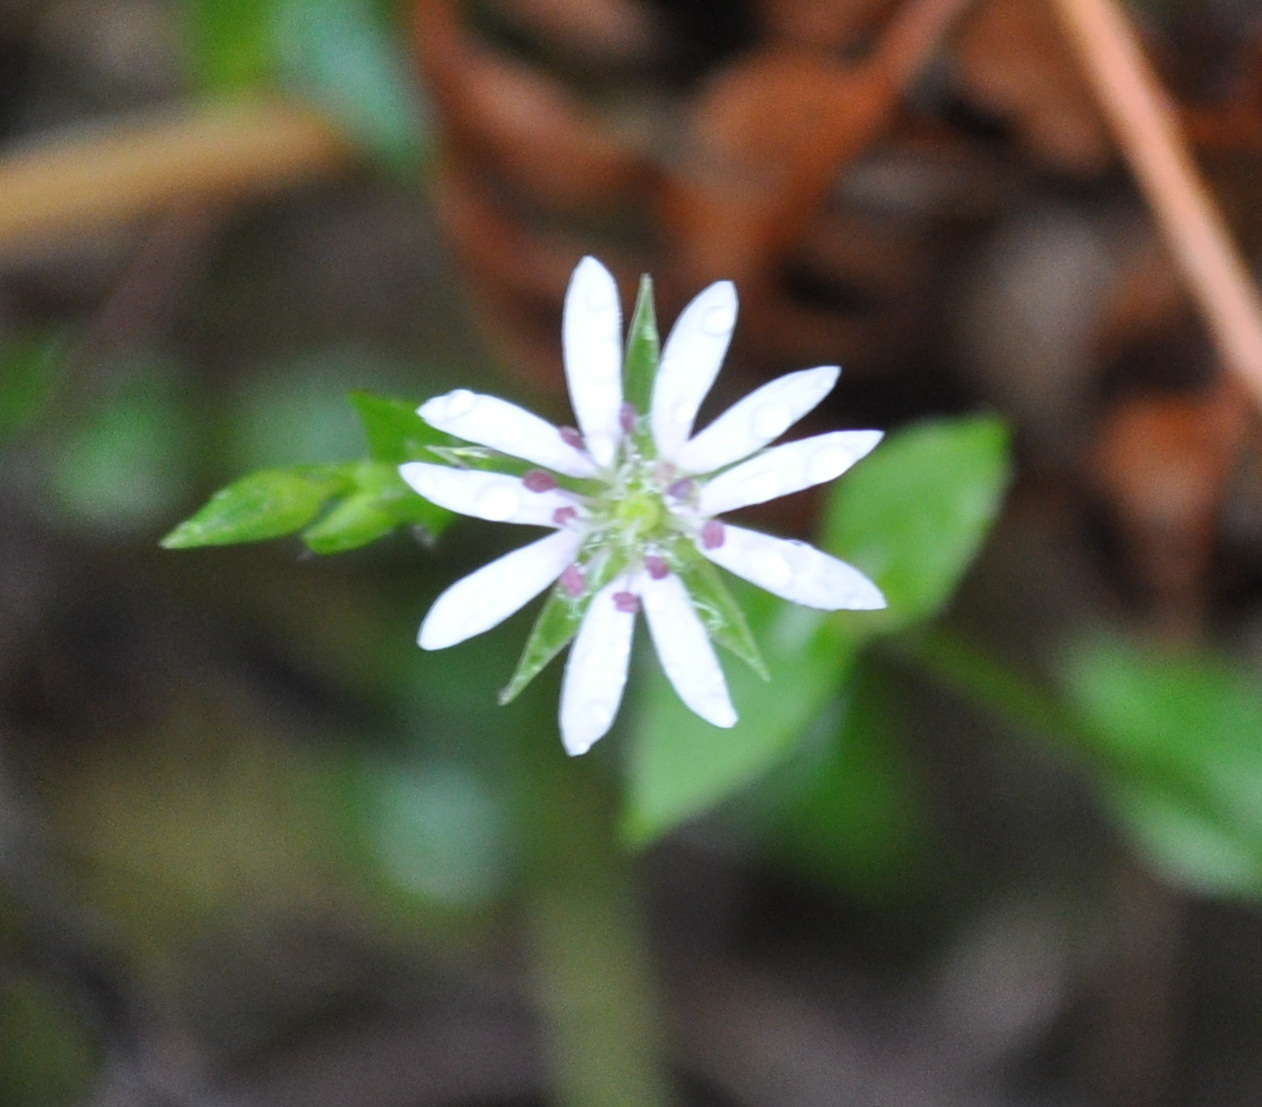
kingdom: Plantae
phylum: Tracheophyta
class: Magnoliopsida
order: Caryophyllales
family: Caryophyllaceae
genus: Stellaria
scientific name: Stellaria flaccida
